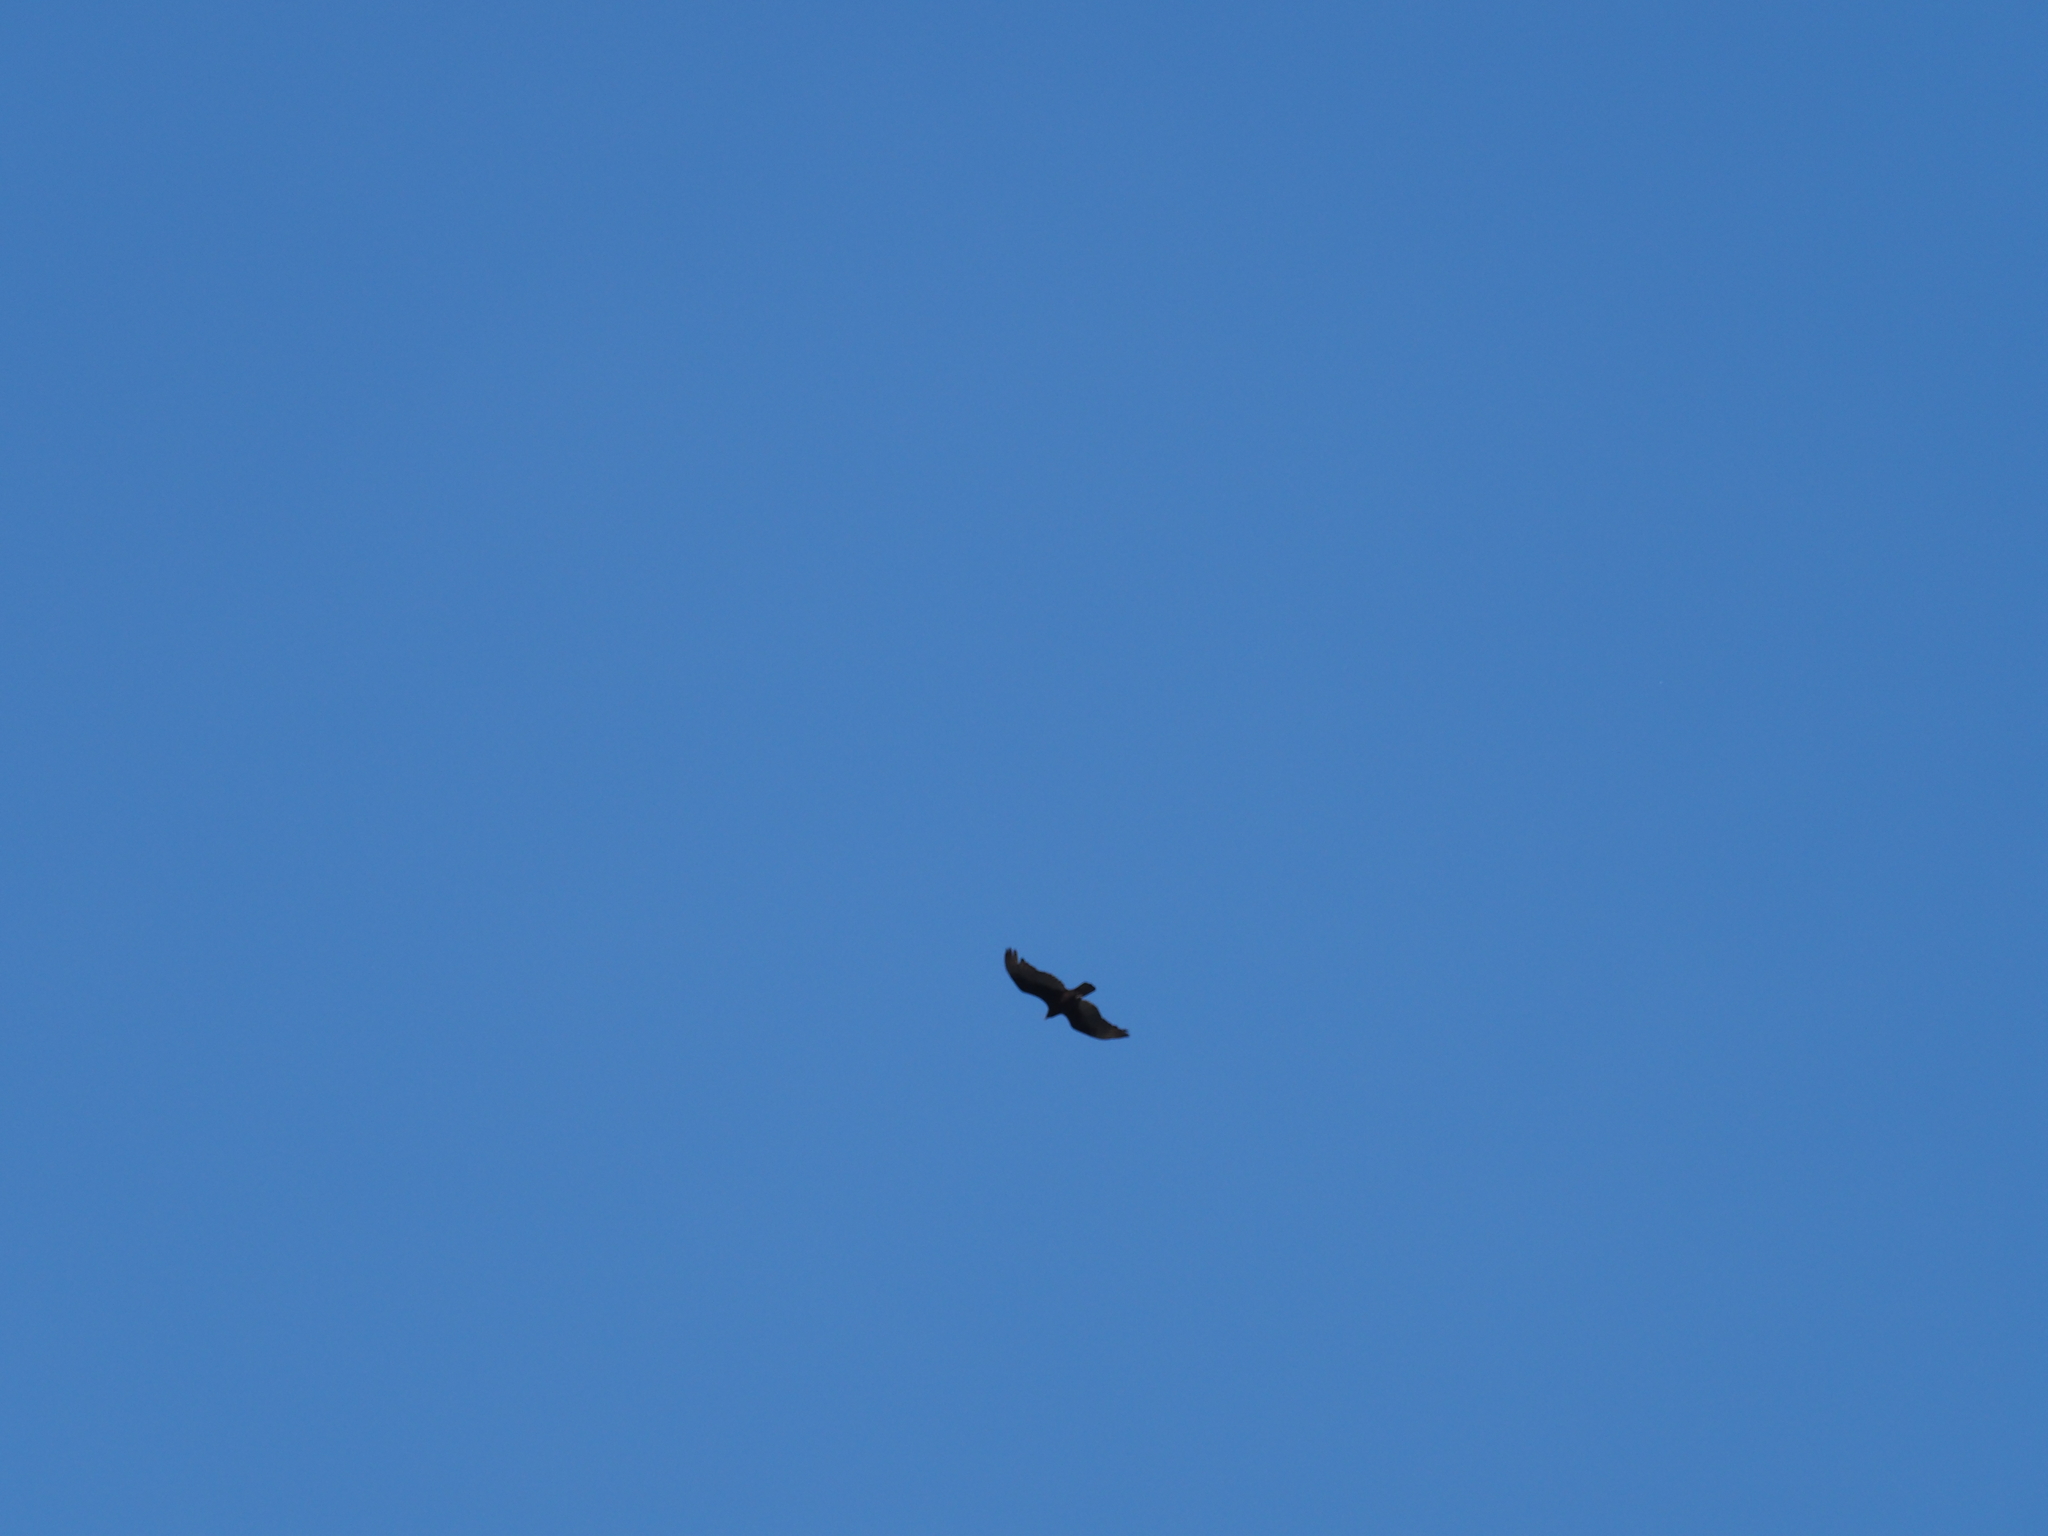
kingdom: Animalia
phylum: Chordata
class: Aves
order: Accipitriformes
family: Cathartidae
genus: Cathartes
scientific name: Cathartes aura
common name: Turkey vulture
